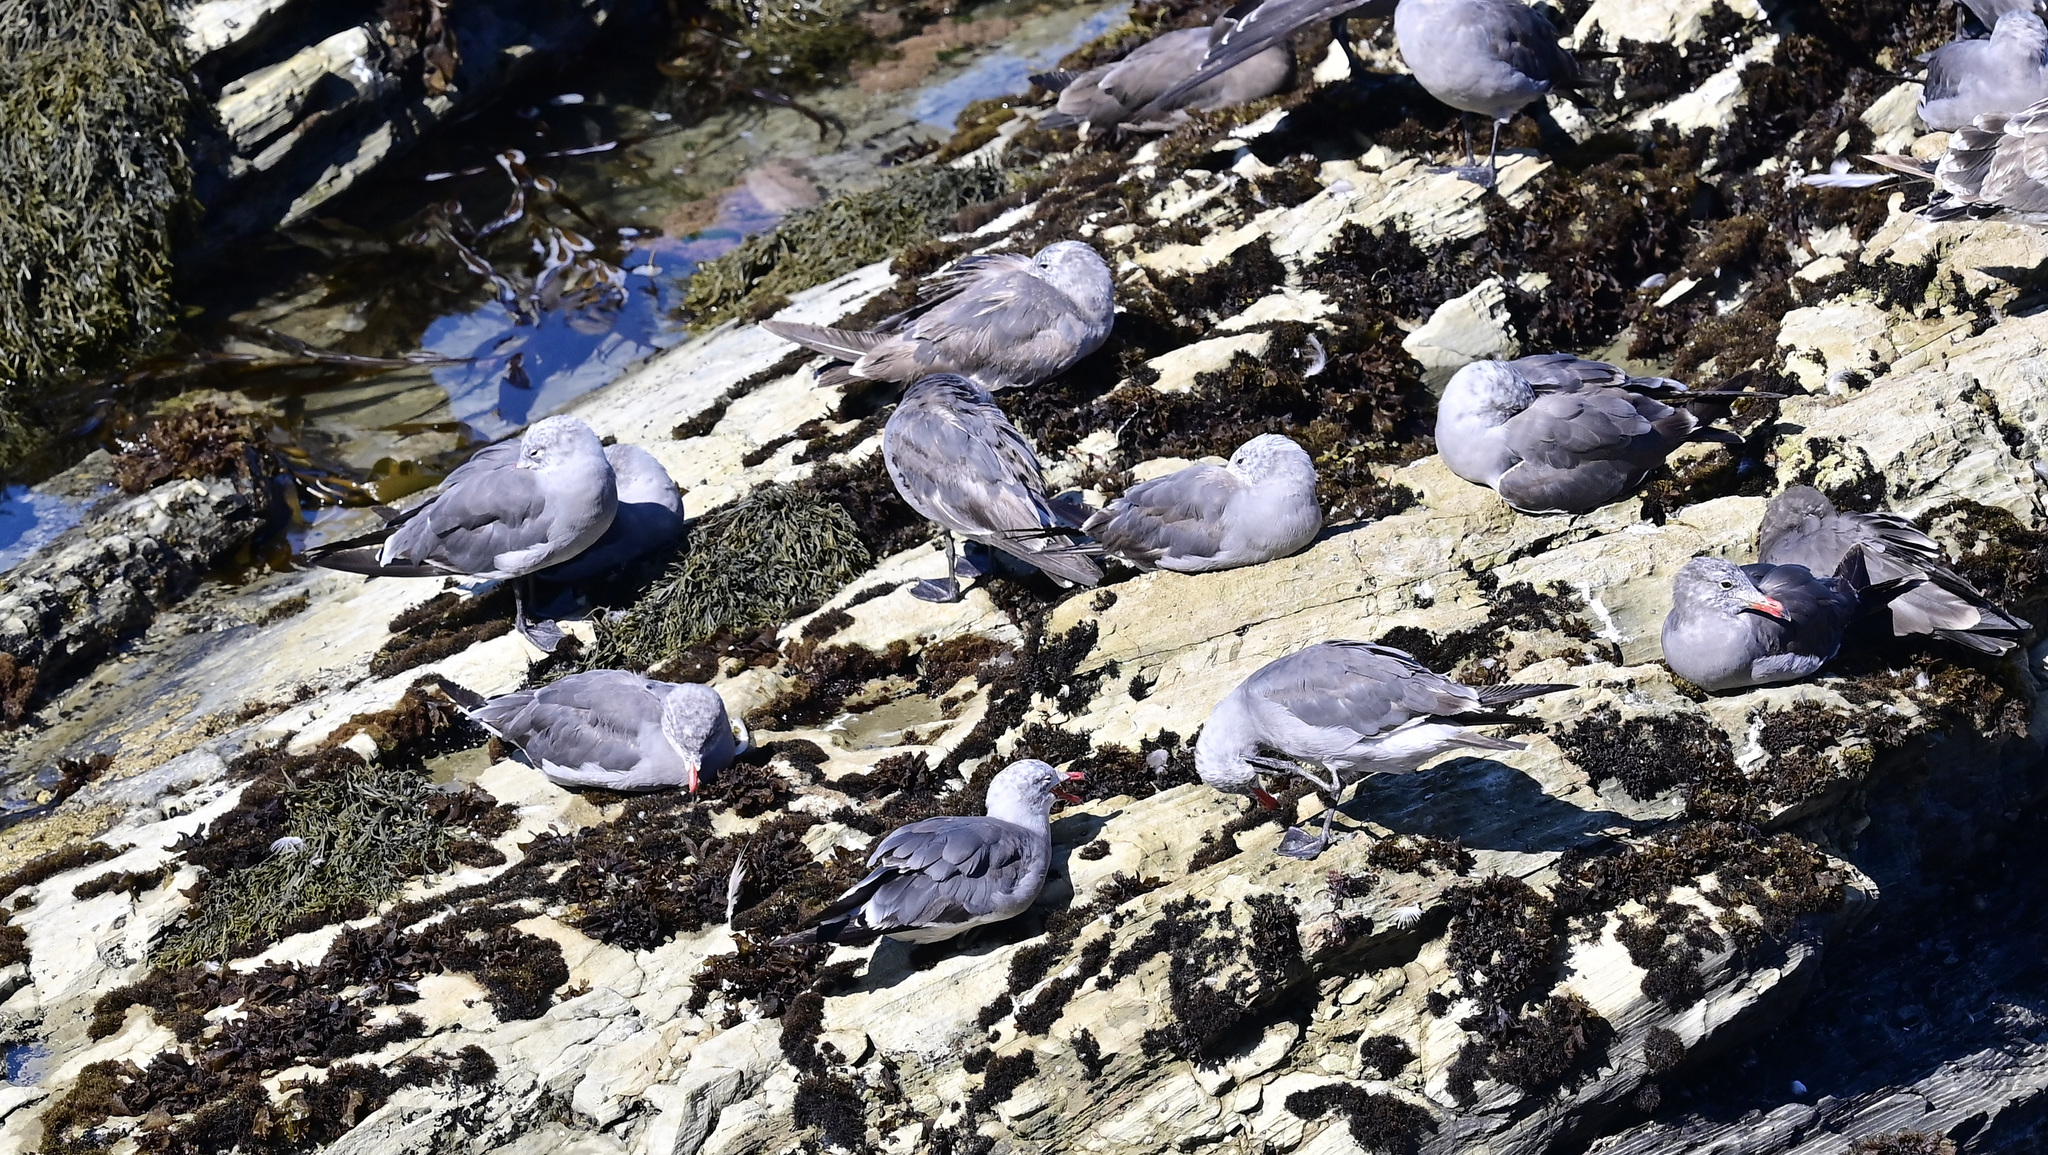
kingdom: Animalia
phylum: Chordata
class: Aves
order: Charadriiformes
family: Laridae
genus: Larus
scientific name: Larus heermanni
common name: Heermann's gull
